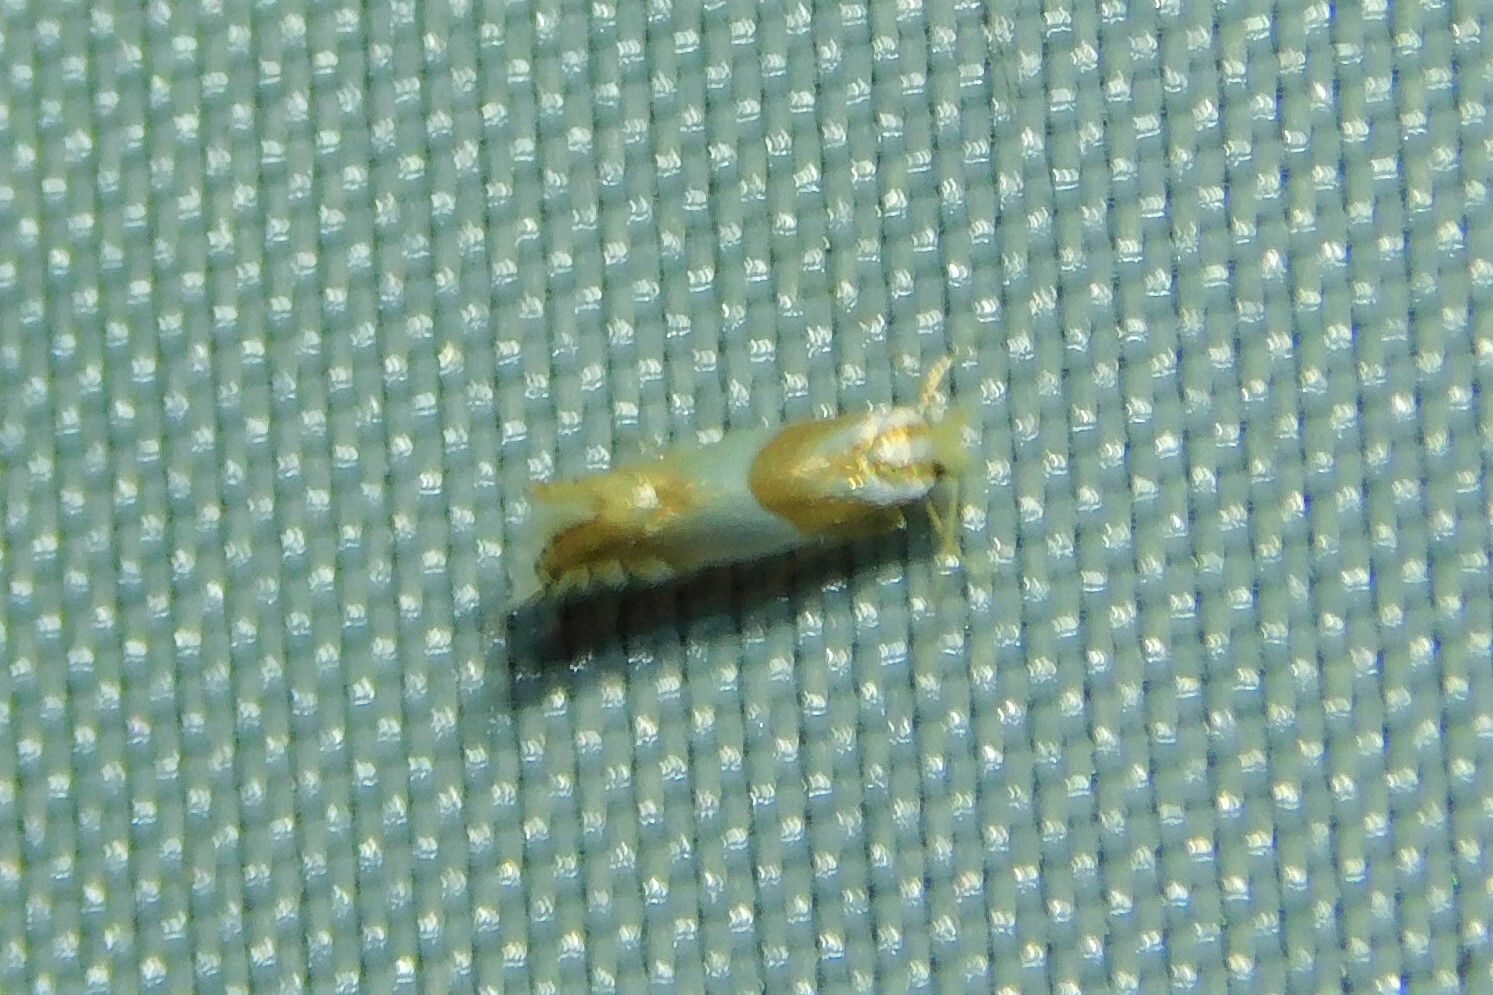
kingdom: Animalia
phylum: Arthropoda
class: Insecta
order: Lepidoptera
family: Gracillariidae
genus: Phyllonorycter
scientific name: Phyllonorycter roboris
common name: Gold-bent midget
